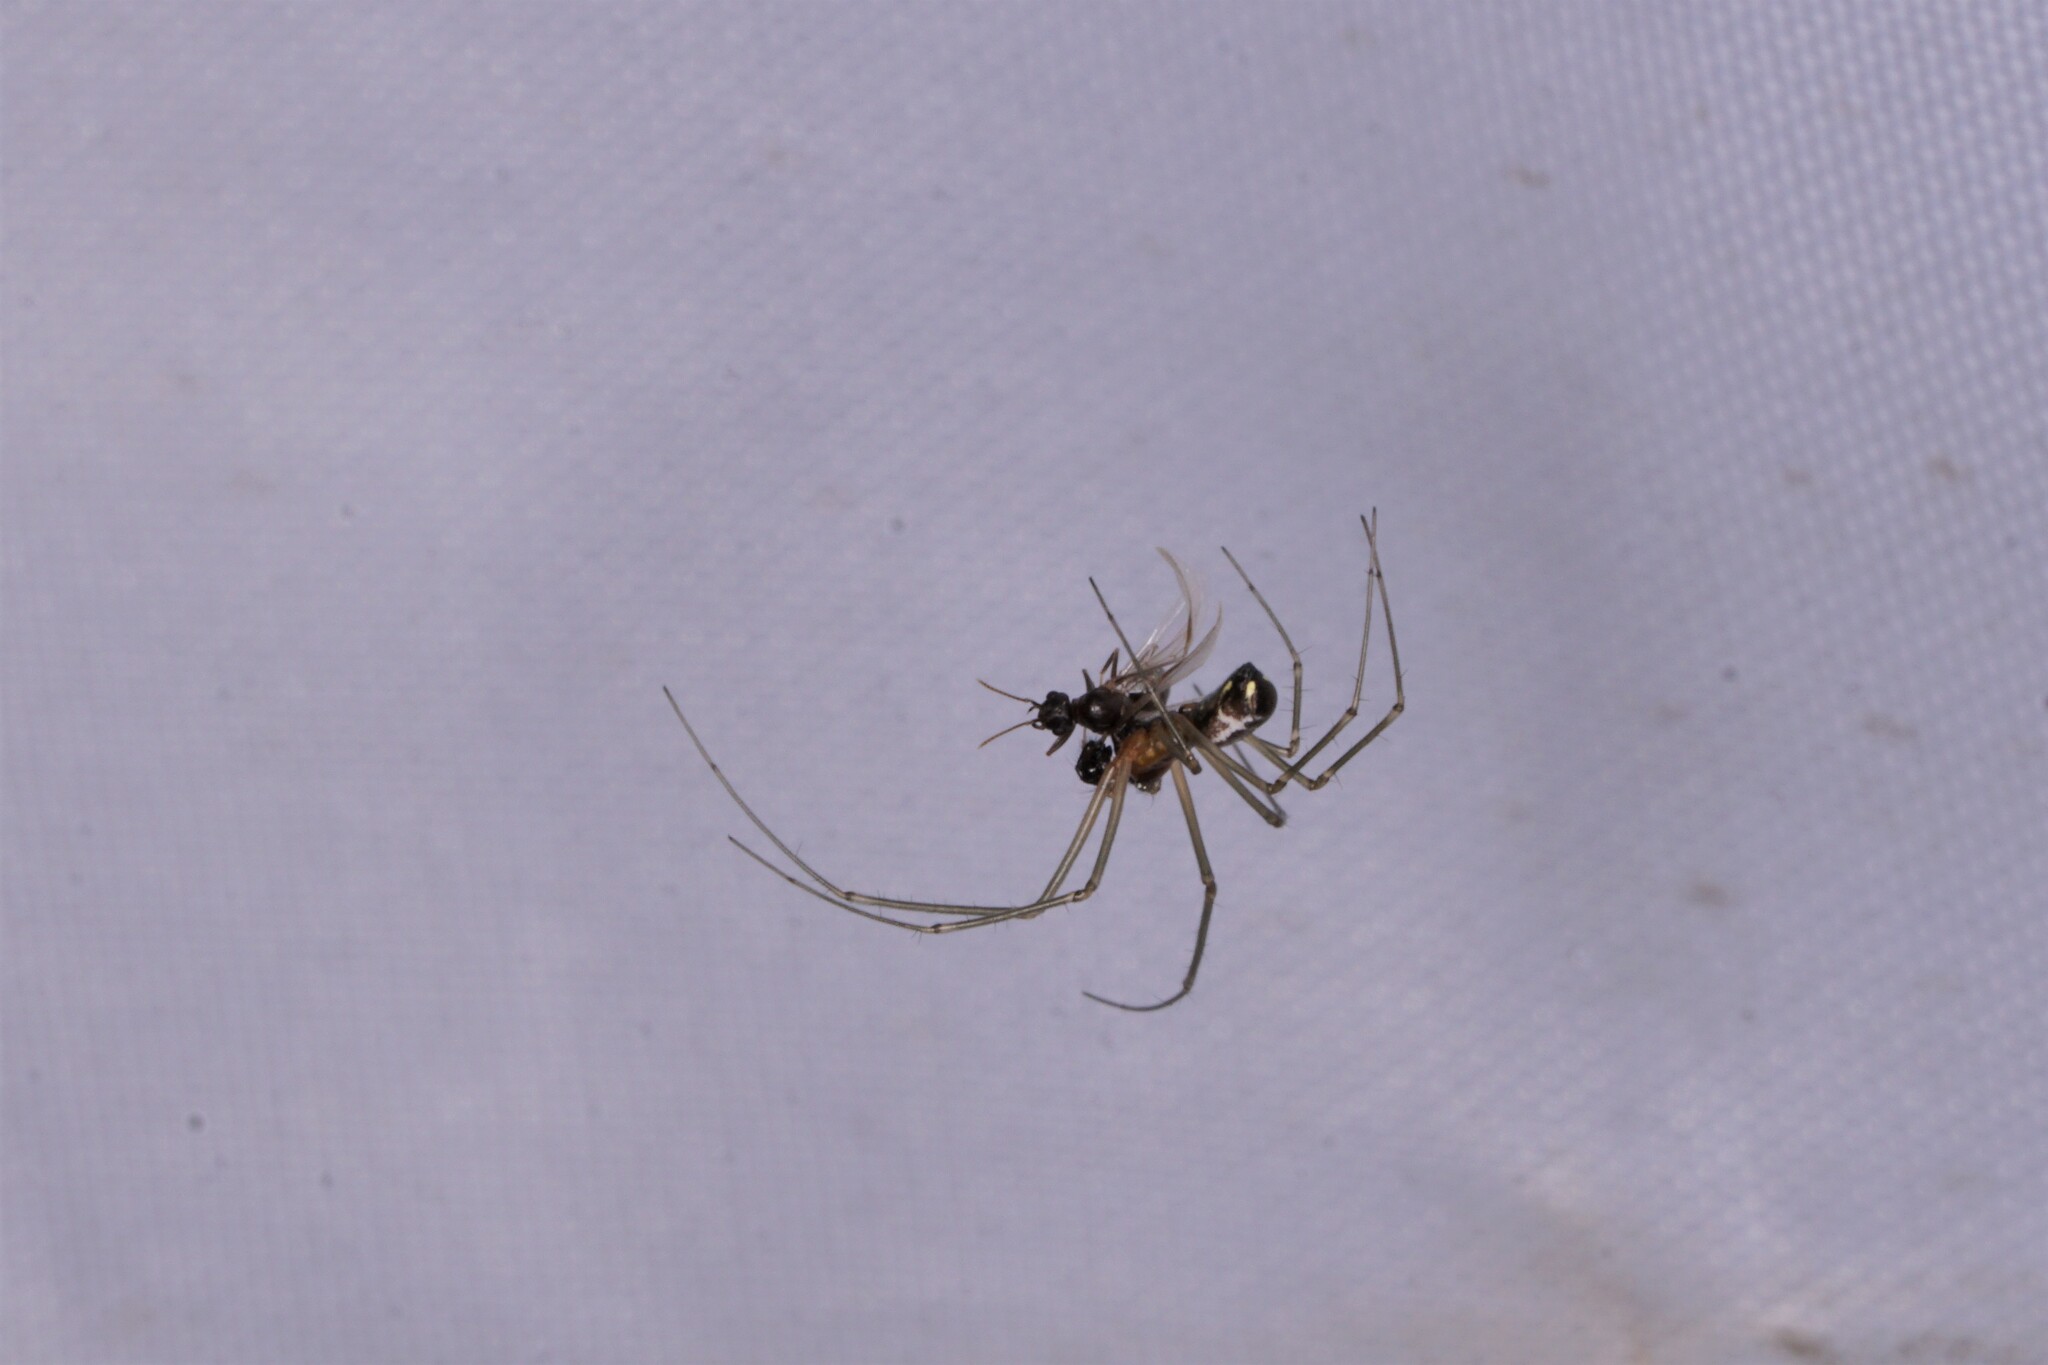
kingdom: Animalia
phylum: Arthropoda
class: Arachnida
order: Araneae
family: Linyphiidae
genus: Neriene
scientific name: Neriene radiata
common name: Filmy dome spider
